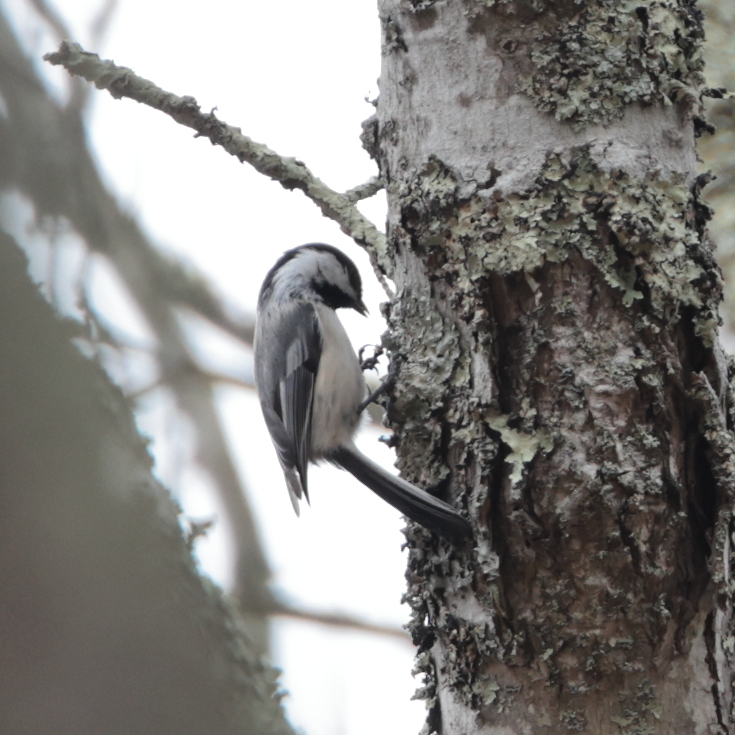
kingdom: Animalia
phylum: Chordata
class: Aves
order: Passeriformes
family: Paridae
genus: Poecile
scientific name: Poecile atricapillus
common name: Black-capped chickadee
